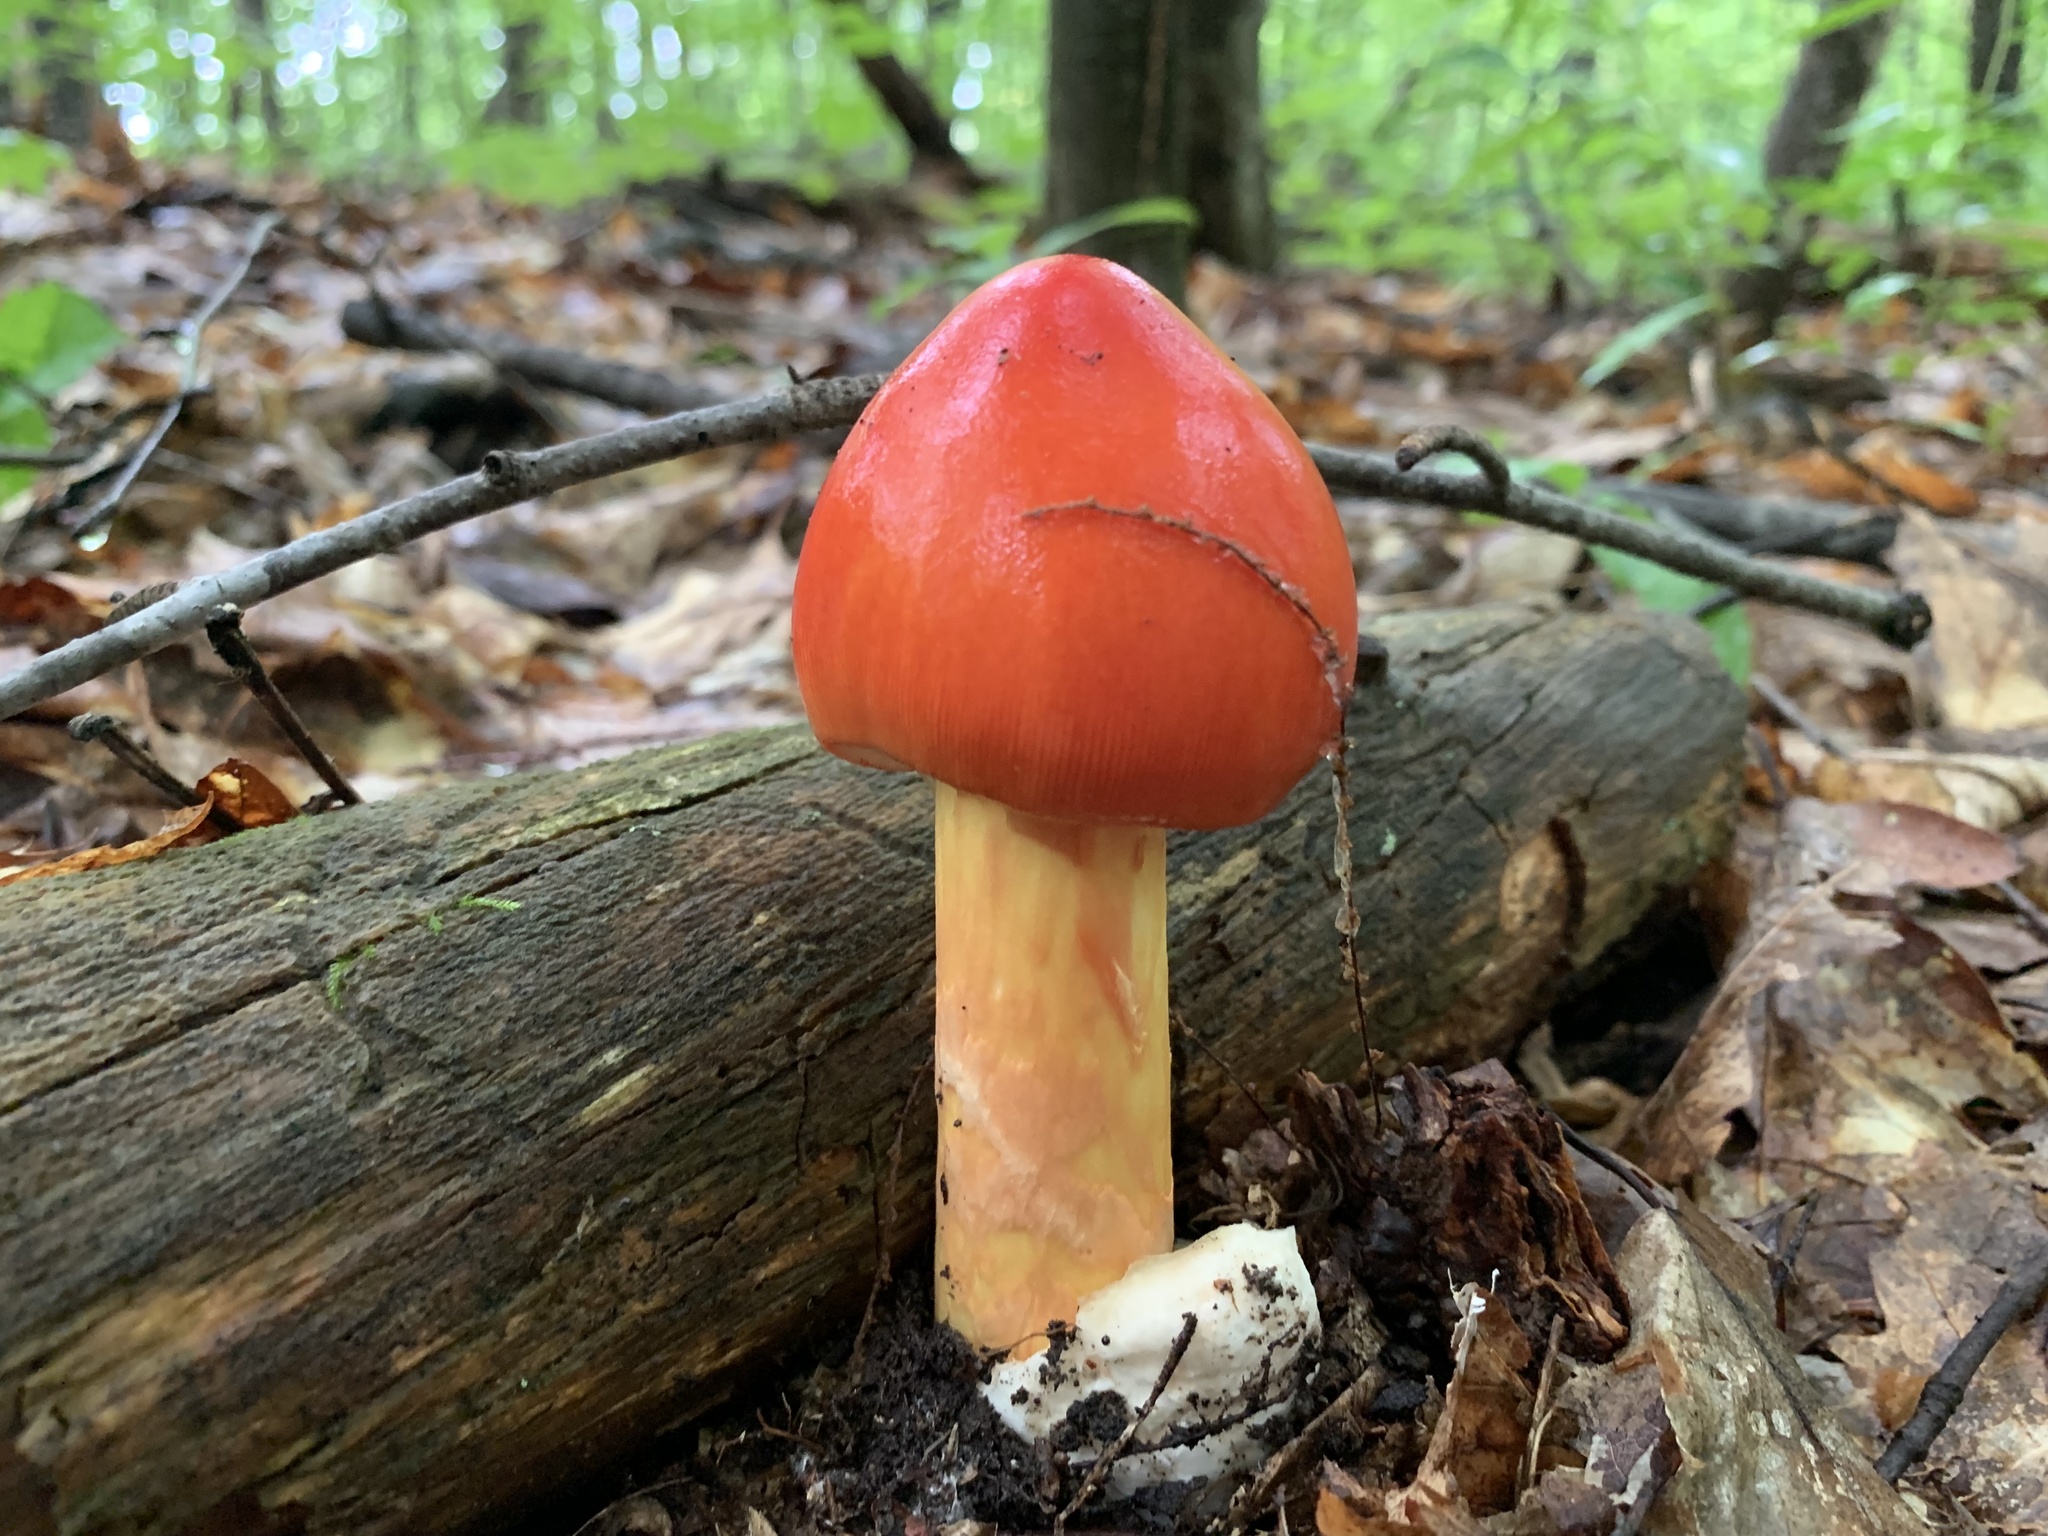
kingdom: Fungi
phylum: Basidiomycota
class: Agaricomycetes
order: Agaricales
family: Amanitaceae
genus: Amanita
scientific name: Amanita jacksonii
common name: Jackson's slender caesar
